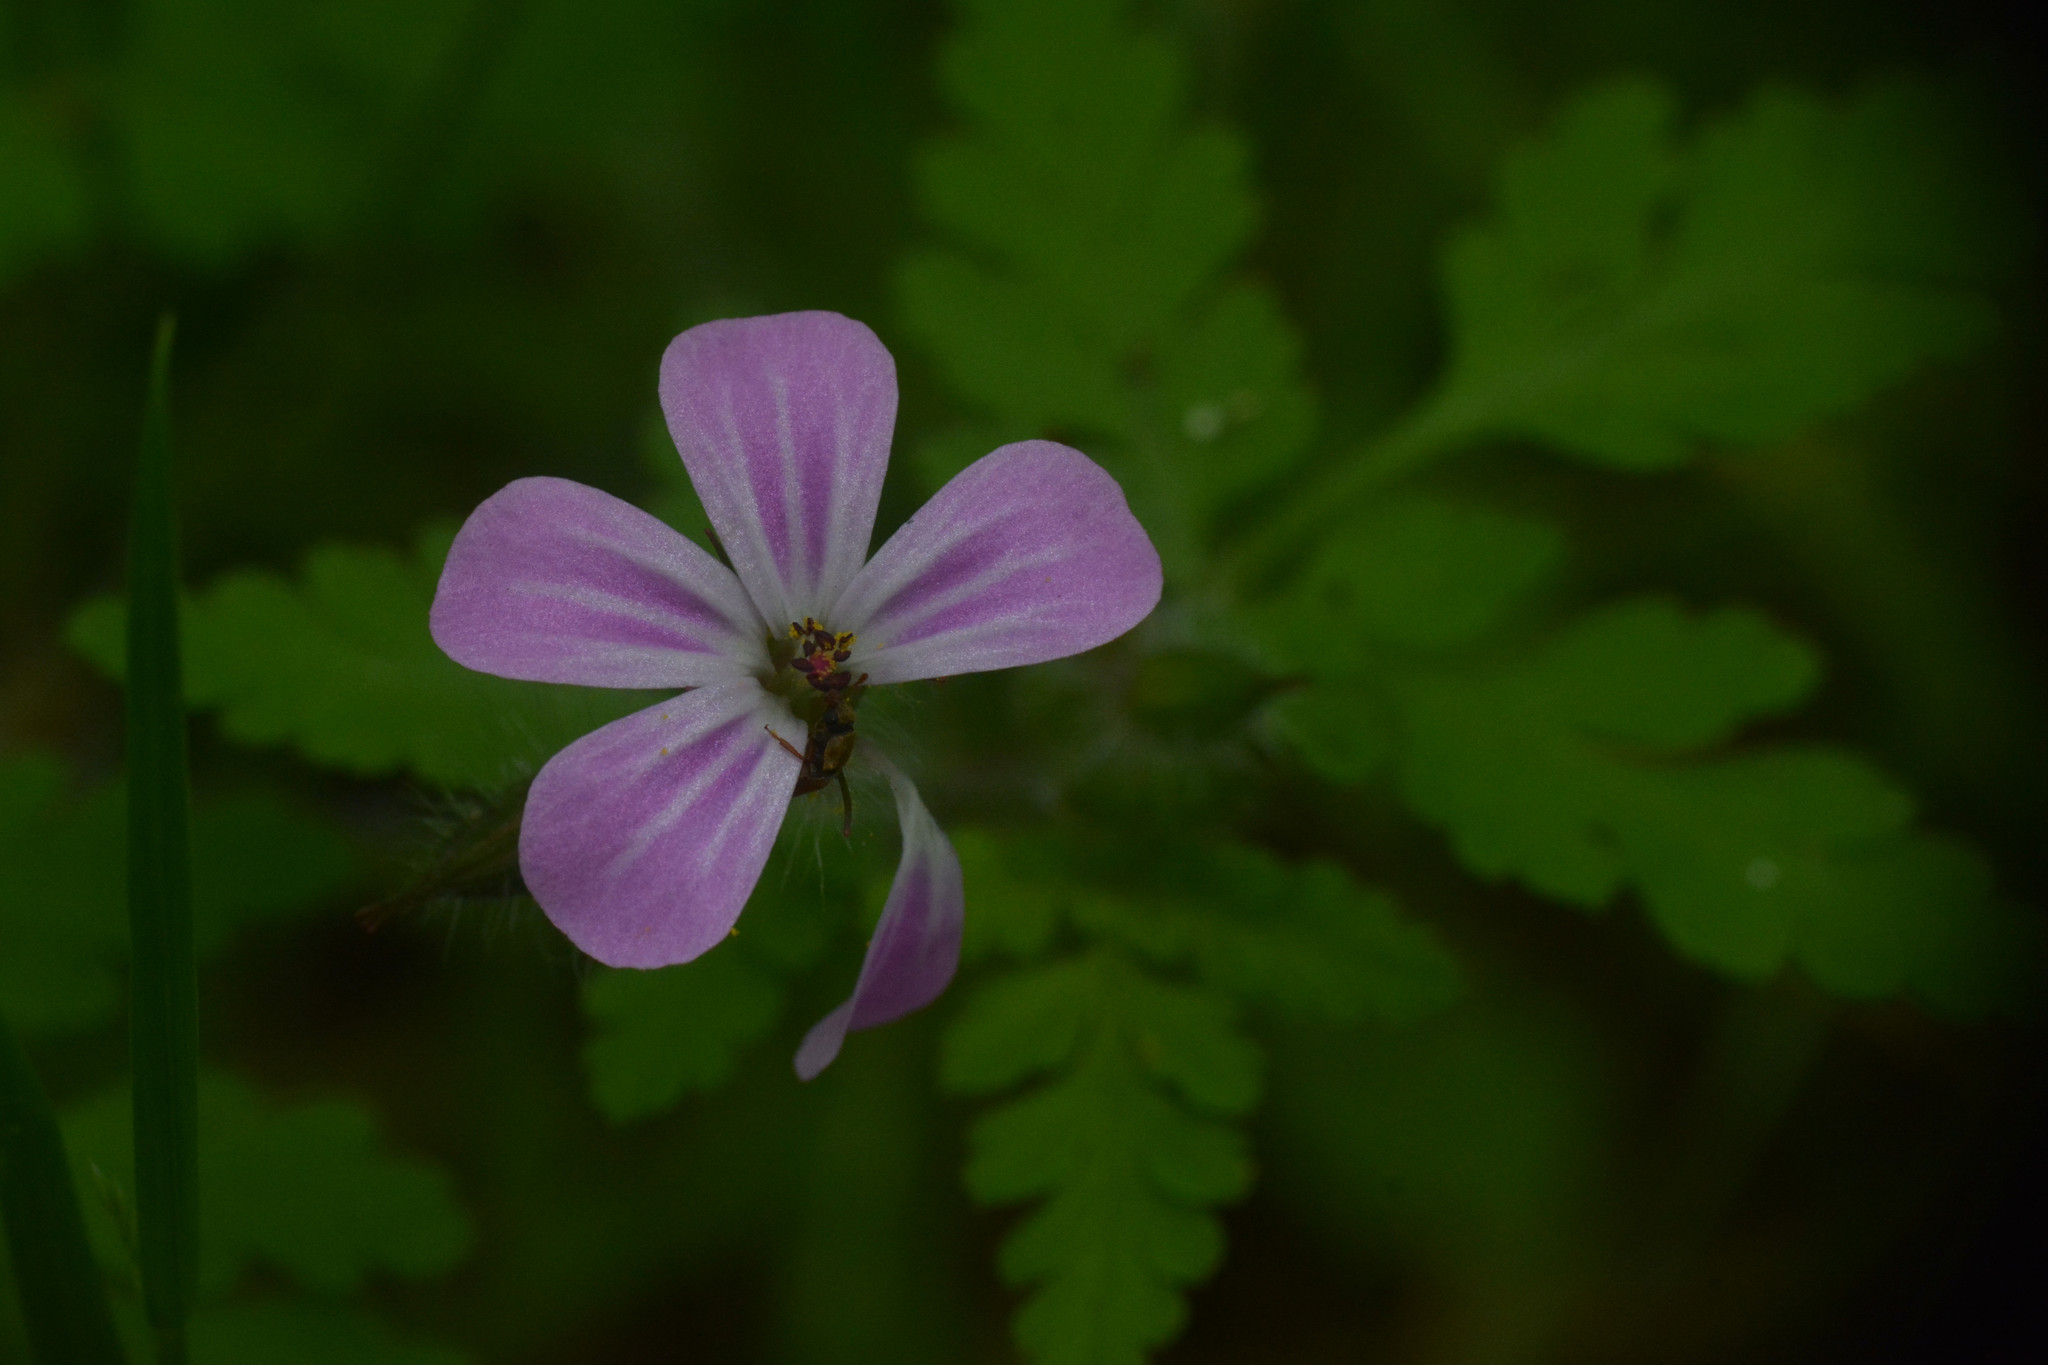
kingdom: Plantae
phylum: Tracheophyta
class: Magnoliopsida
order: Geraniales
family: Geraniaceae
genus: Geranium
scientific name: Geranium robertianum
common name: Herb-robert
